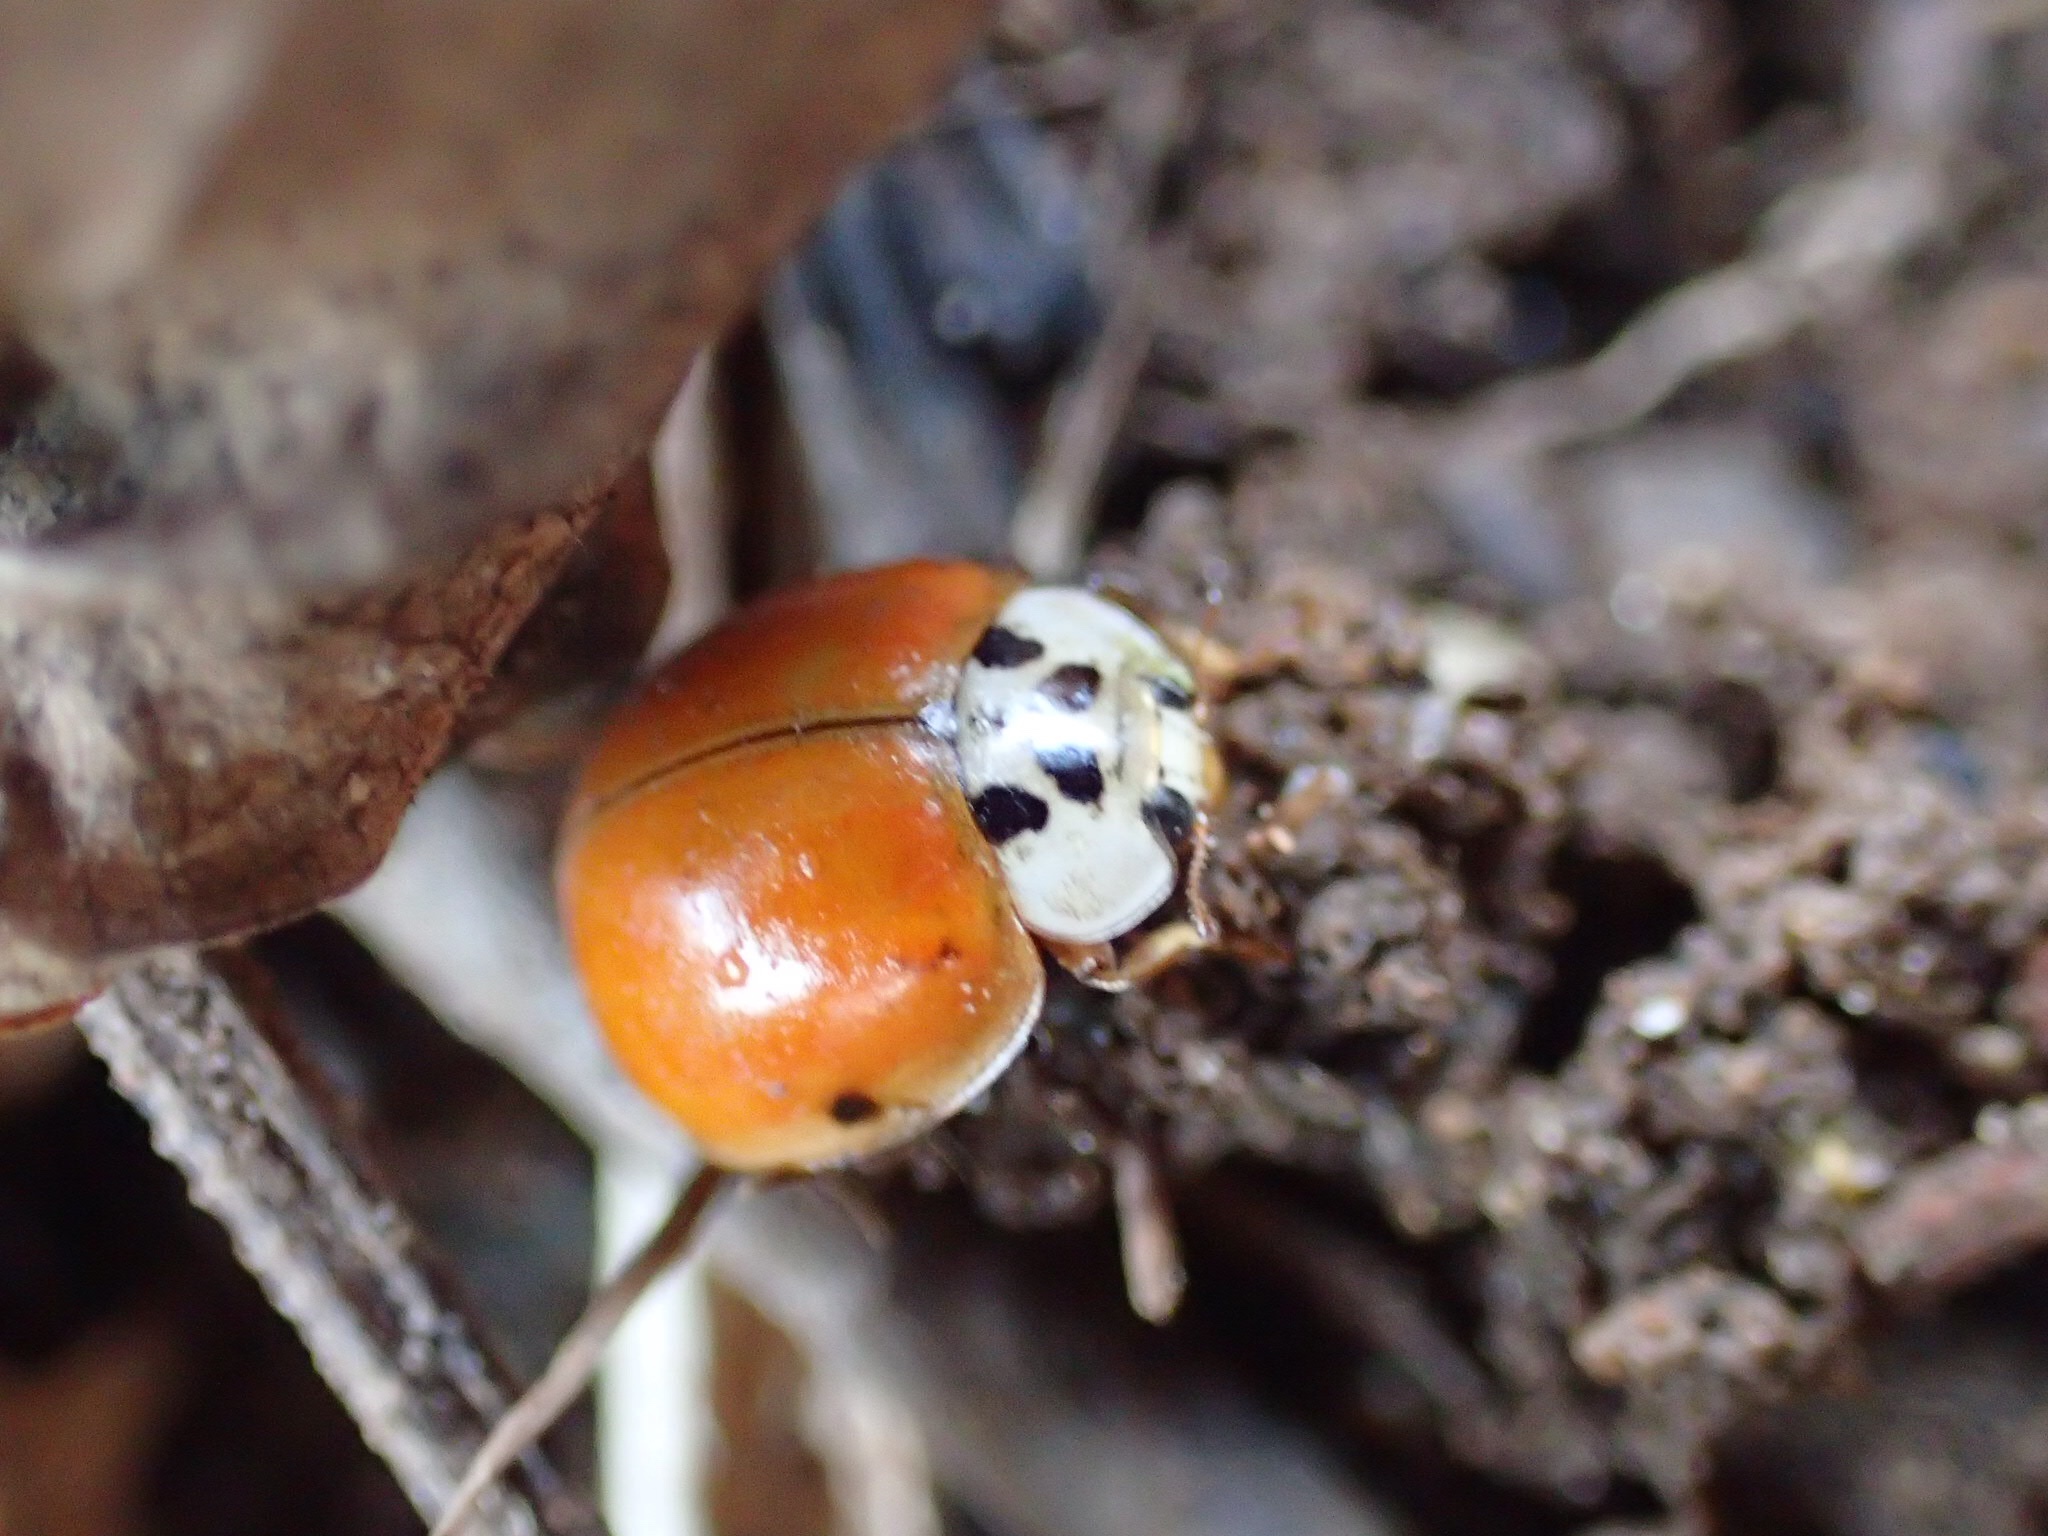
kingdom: Animalia
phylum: Arthropoda
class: Insecta
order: Coleoptera
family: Coccinellidae
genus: Harmonia
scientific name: Harmonia axyridis
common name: Harlequin ladybird
